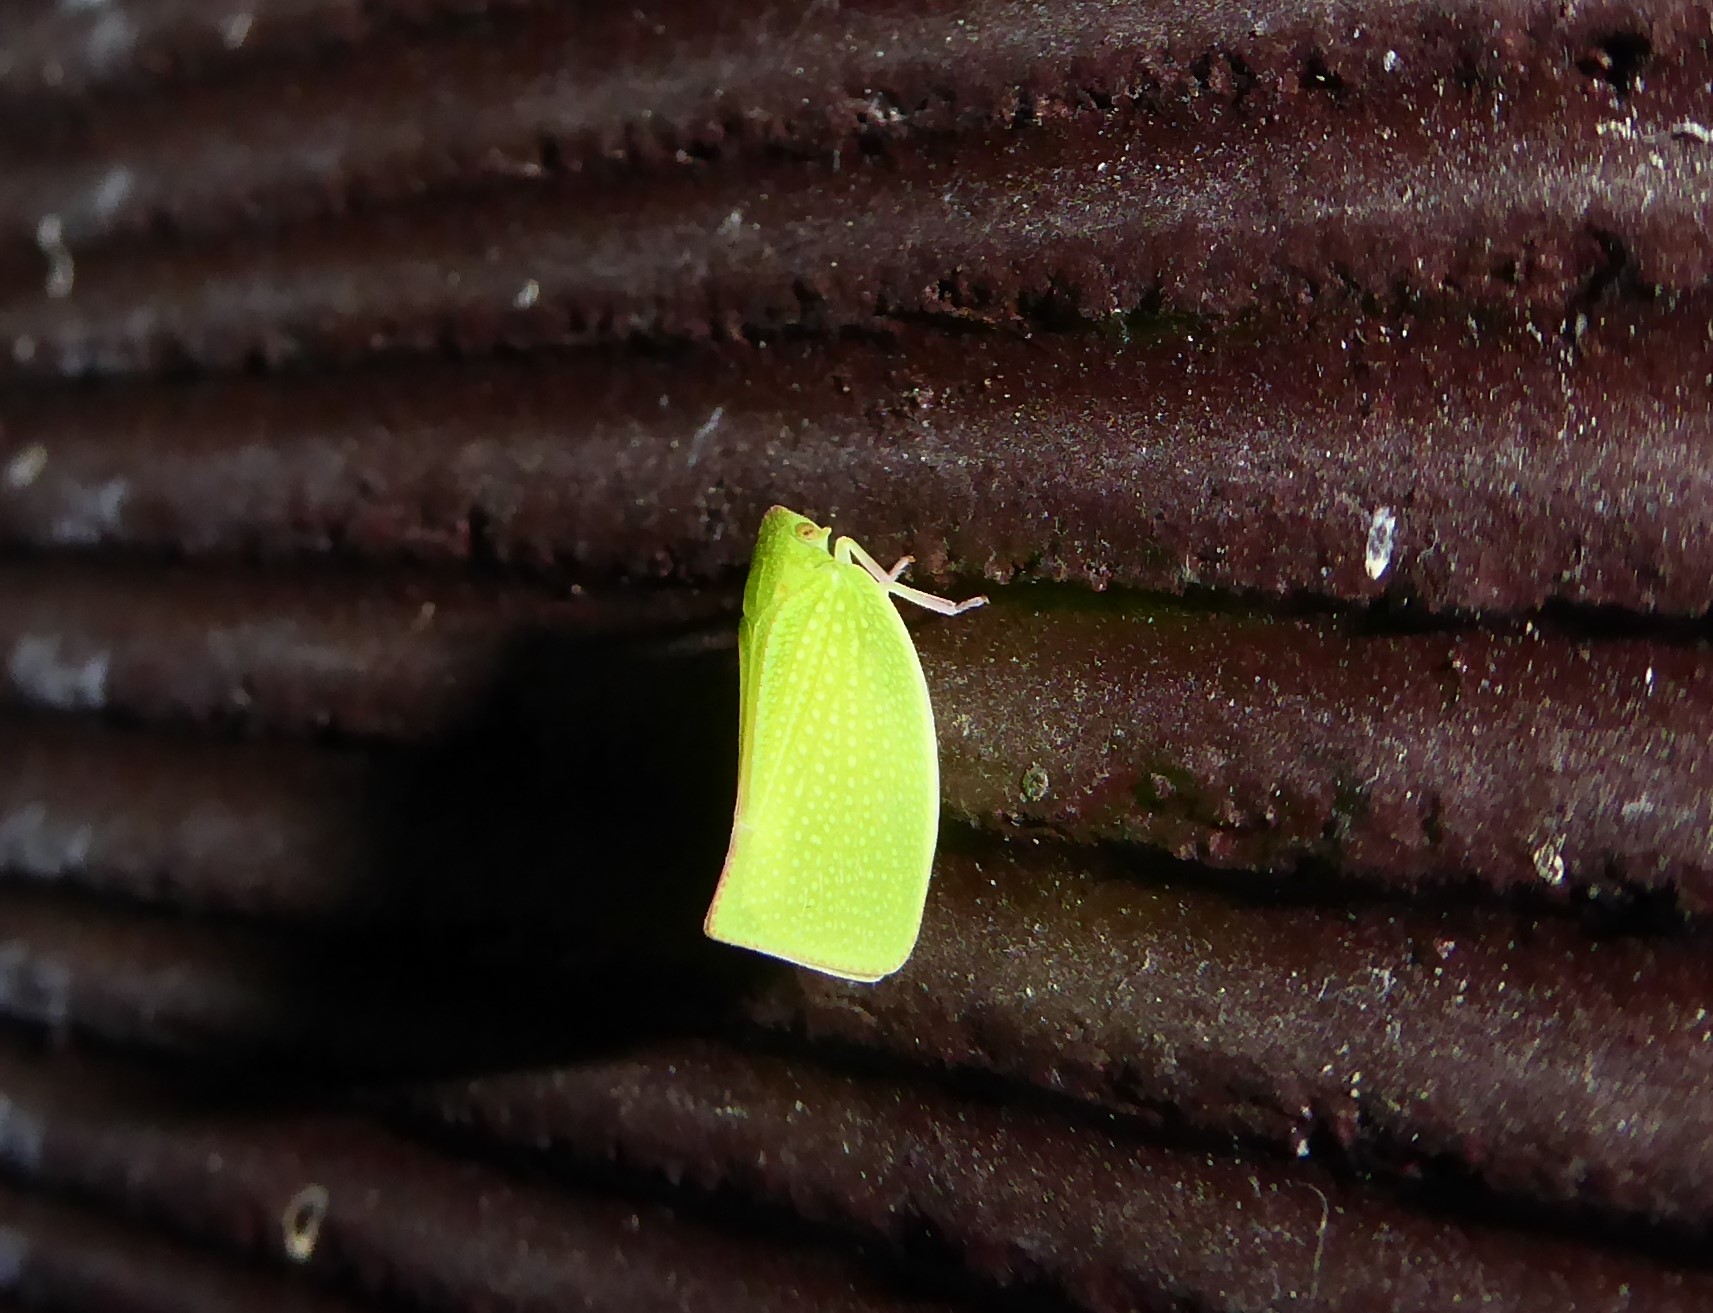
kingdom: Animalia
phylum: Arthropoda
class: Insecta
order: Hemiptera
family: Flatidae
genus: Siphanta
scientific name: Siphanta acuta
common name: Torpedo bug
